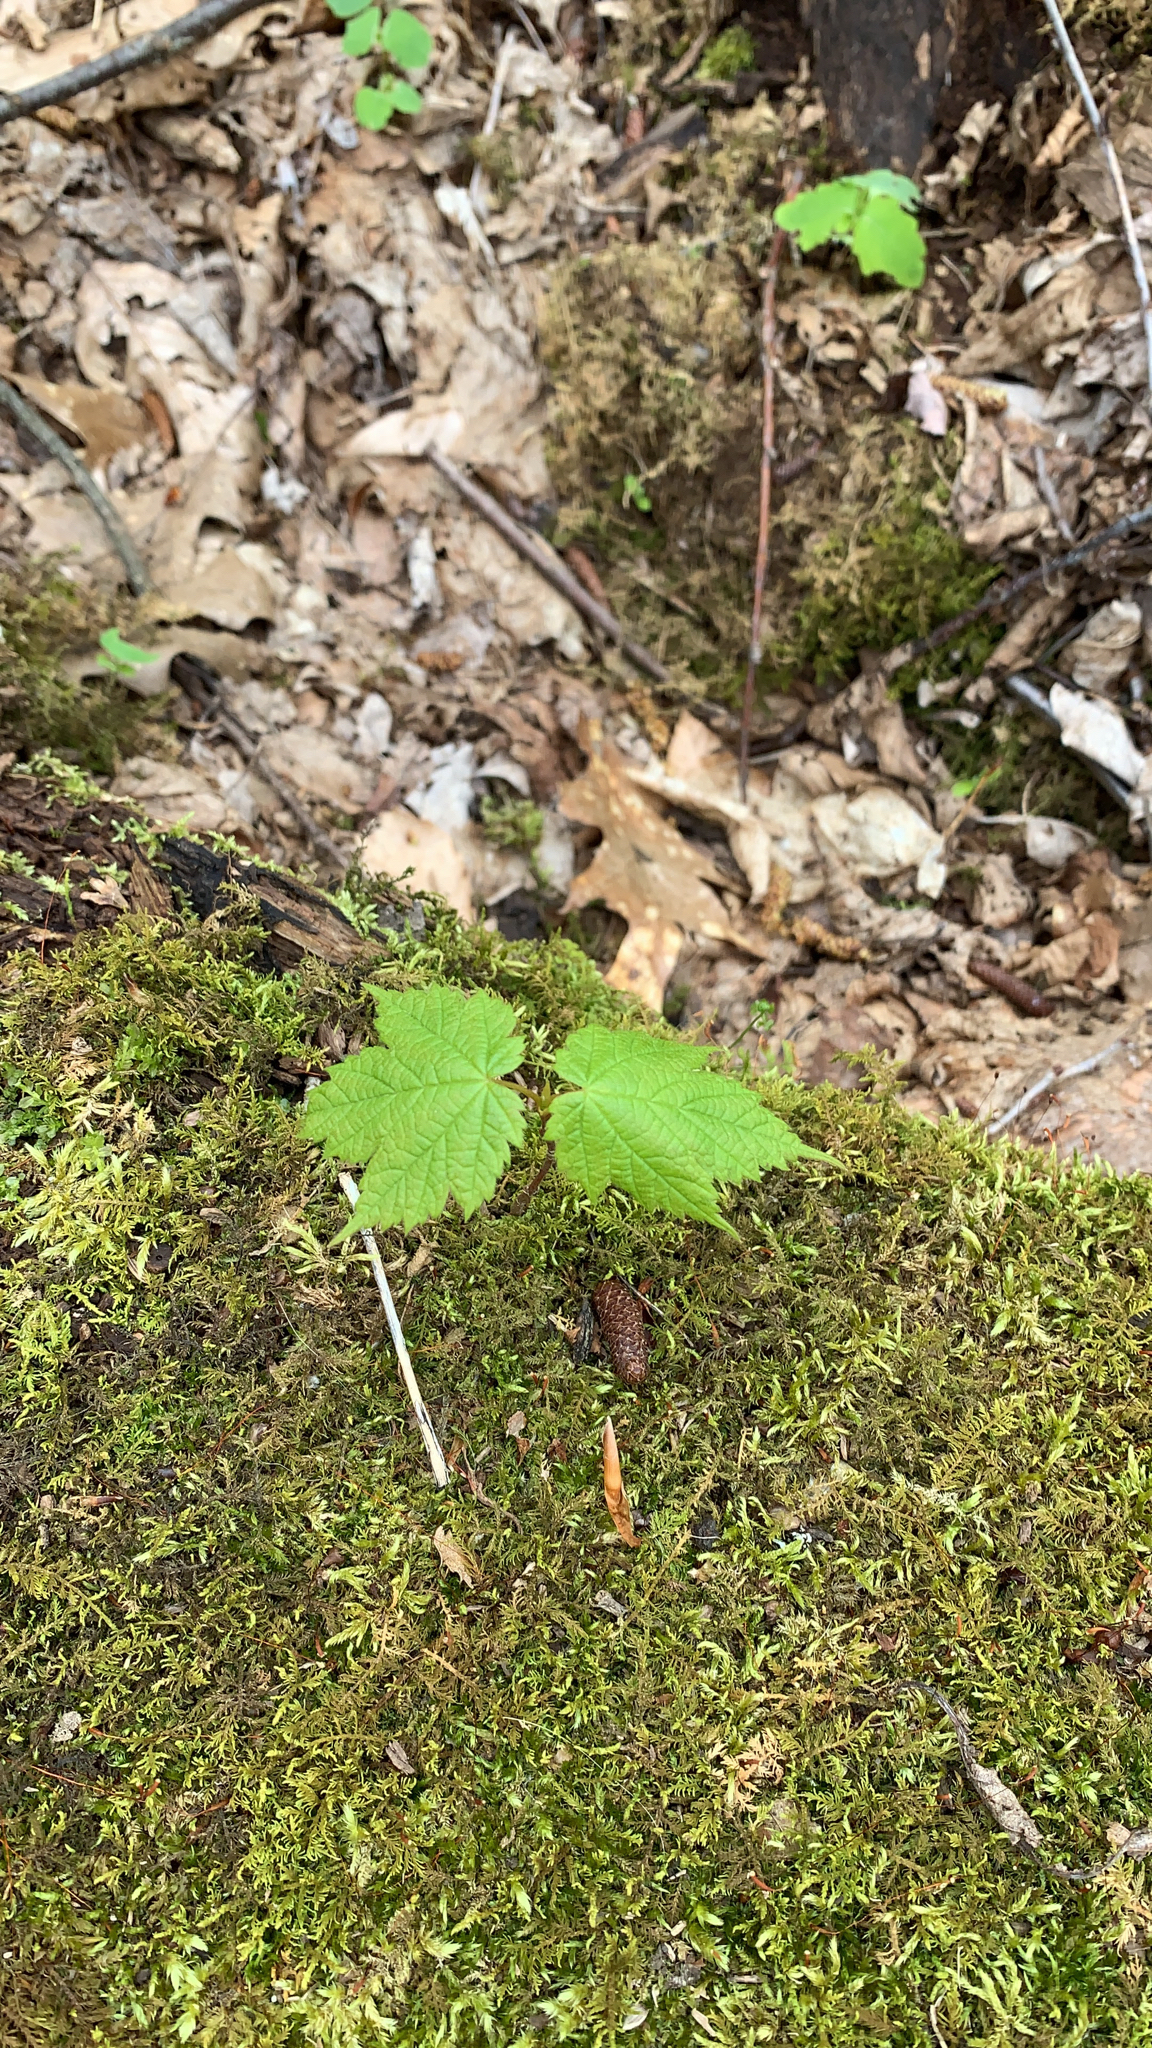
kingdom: Plantae
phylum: Tracheophyta
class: Magnoliopsida
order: Sapindales
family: Sapindaceae
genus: Acer
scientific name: Acer spicatum
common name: Mountain maple
